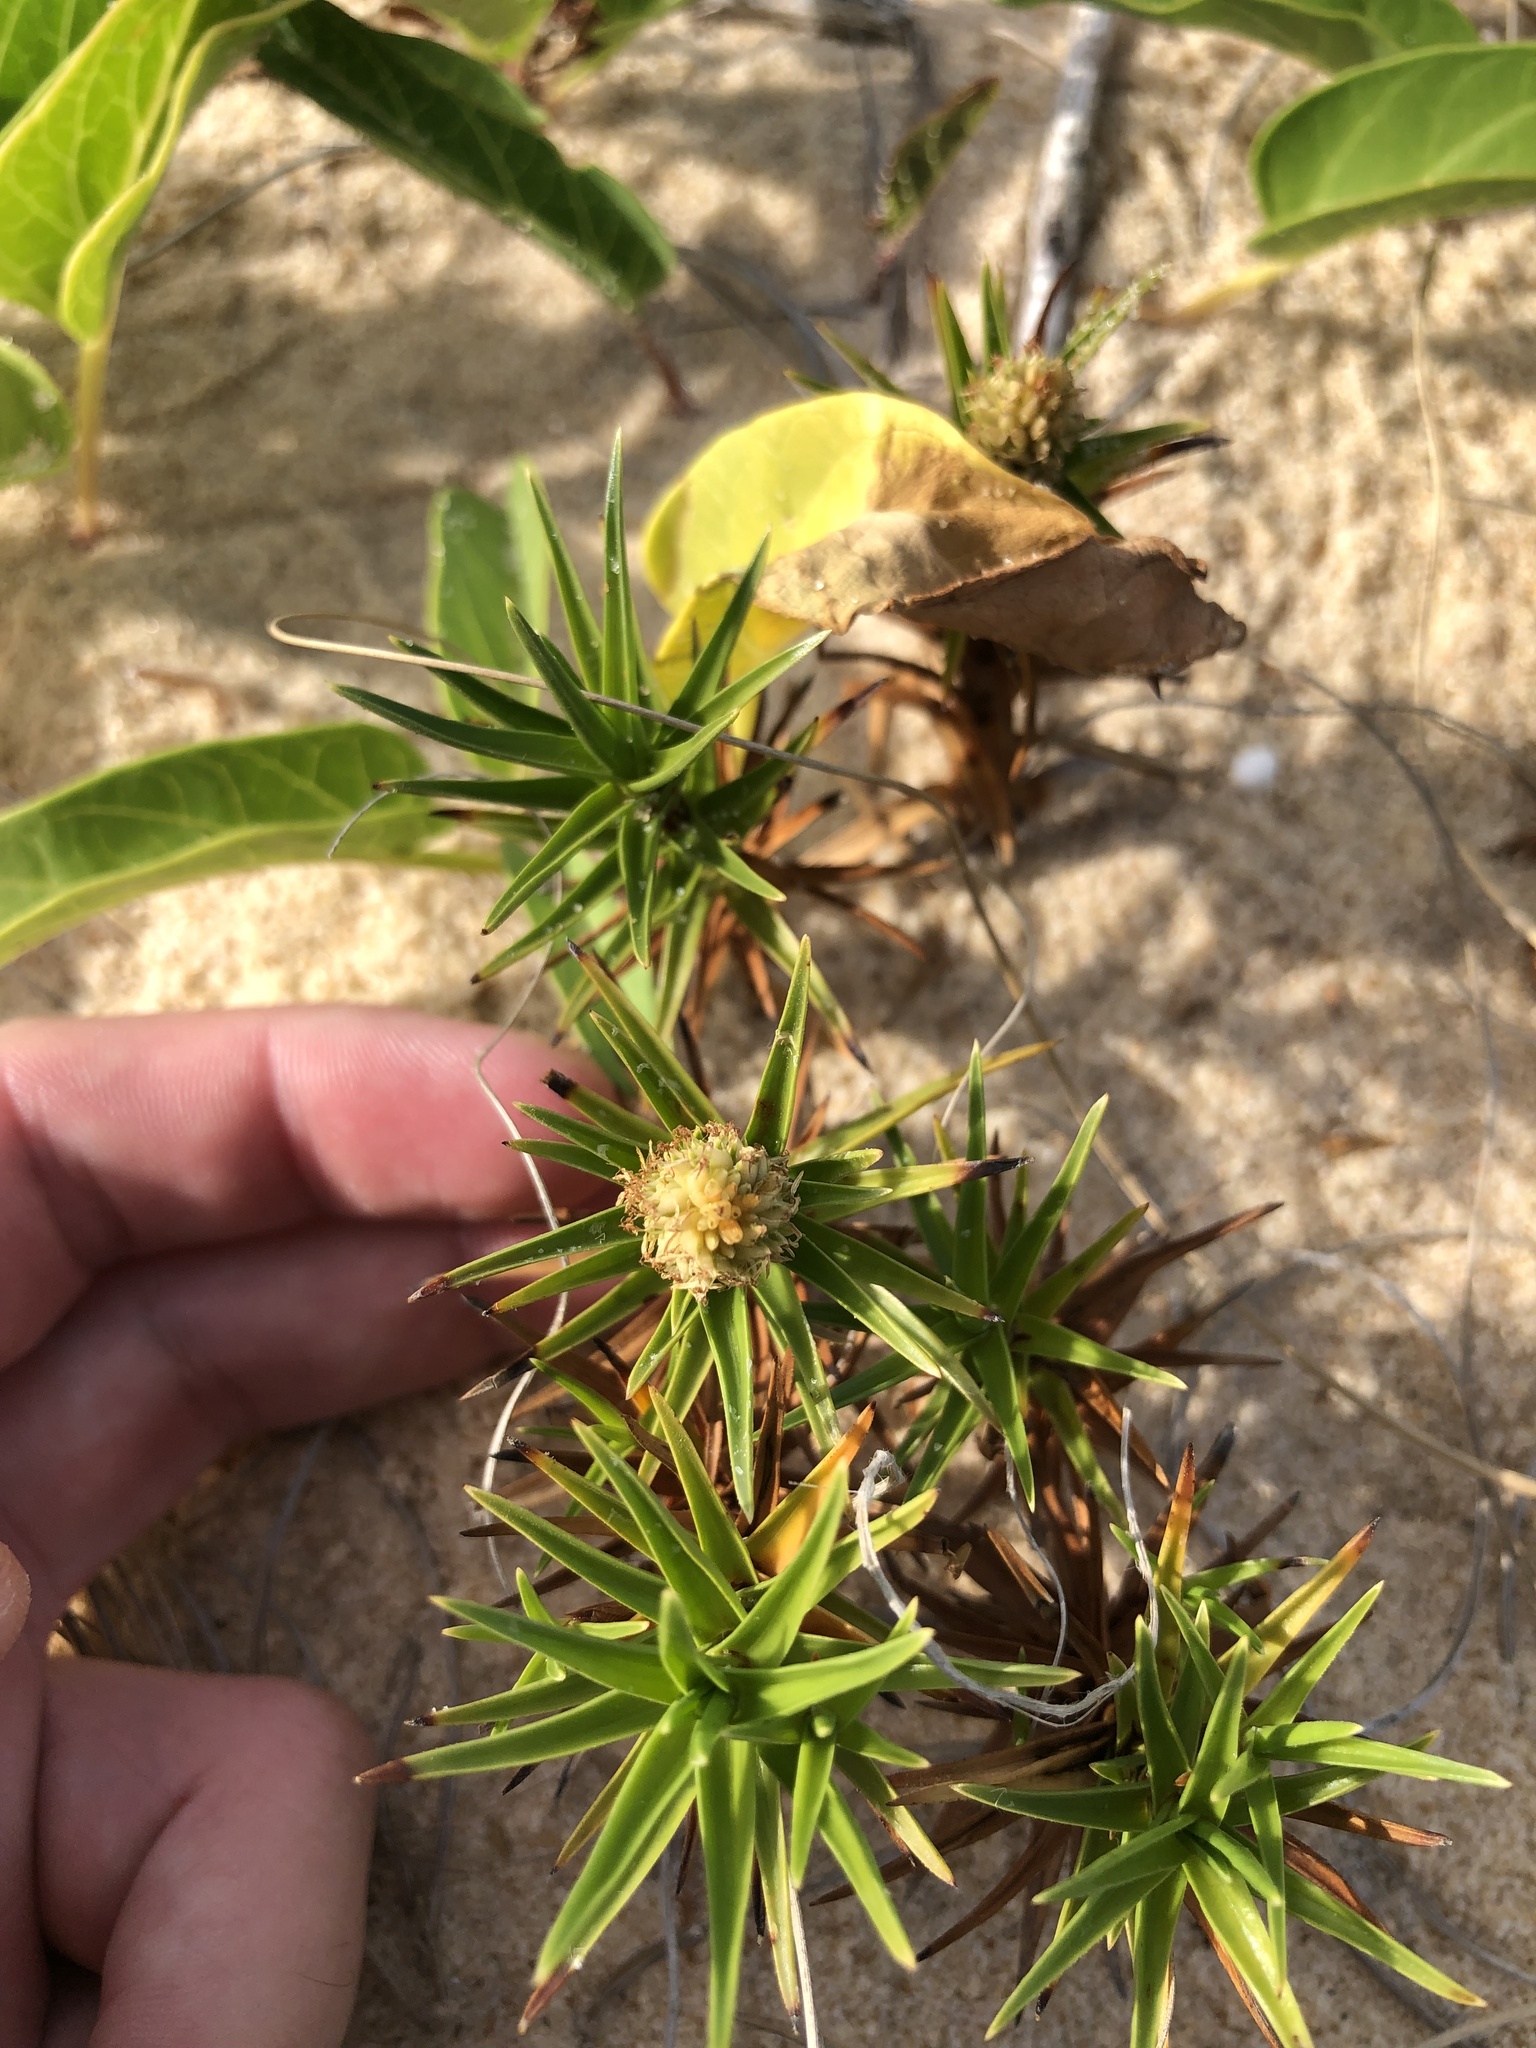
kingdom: Plantae
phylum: Tracheophyta
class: Liliopsida
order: Poales
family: Cyperaceae
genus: Cyperus
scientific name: Cyperus pedunculatus
